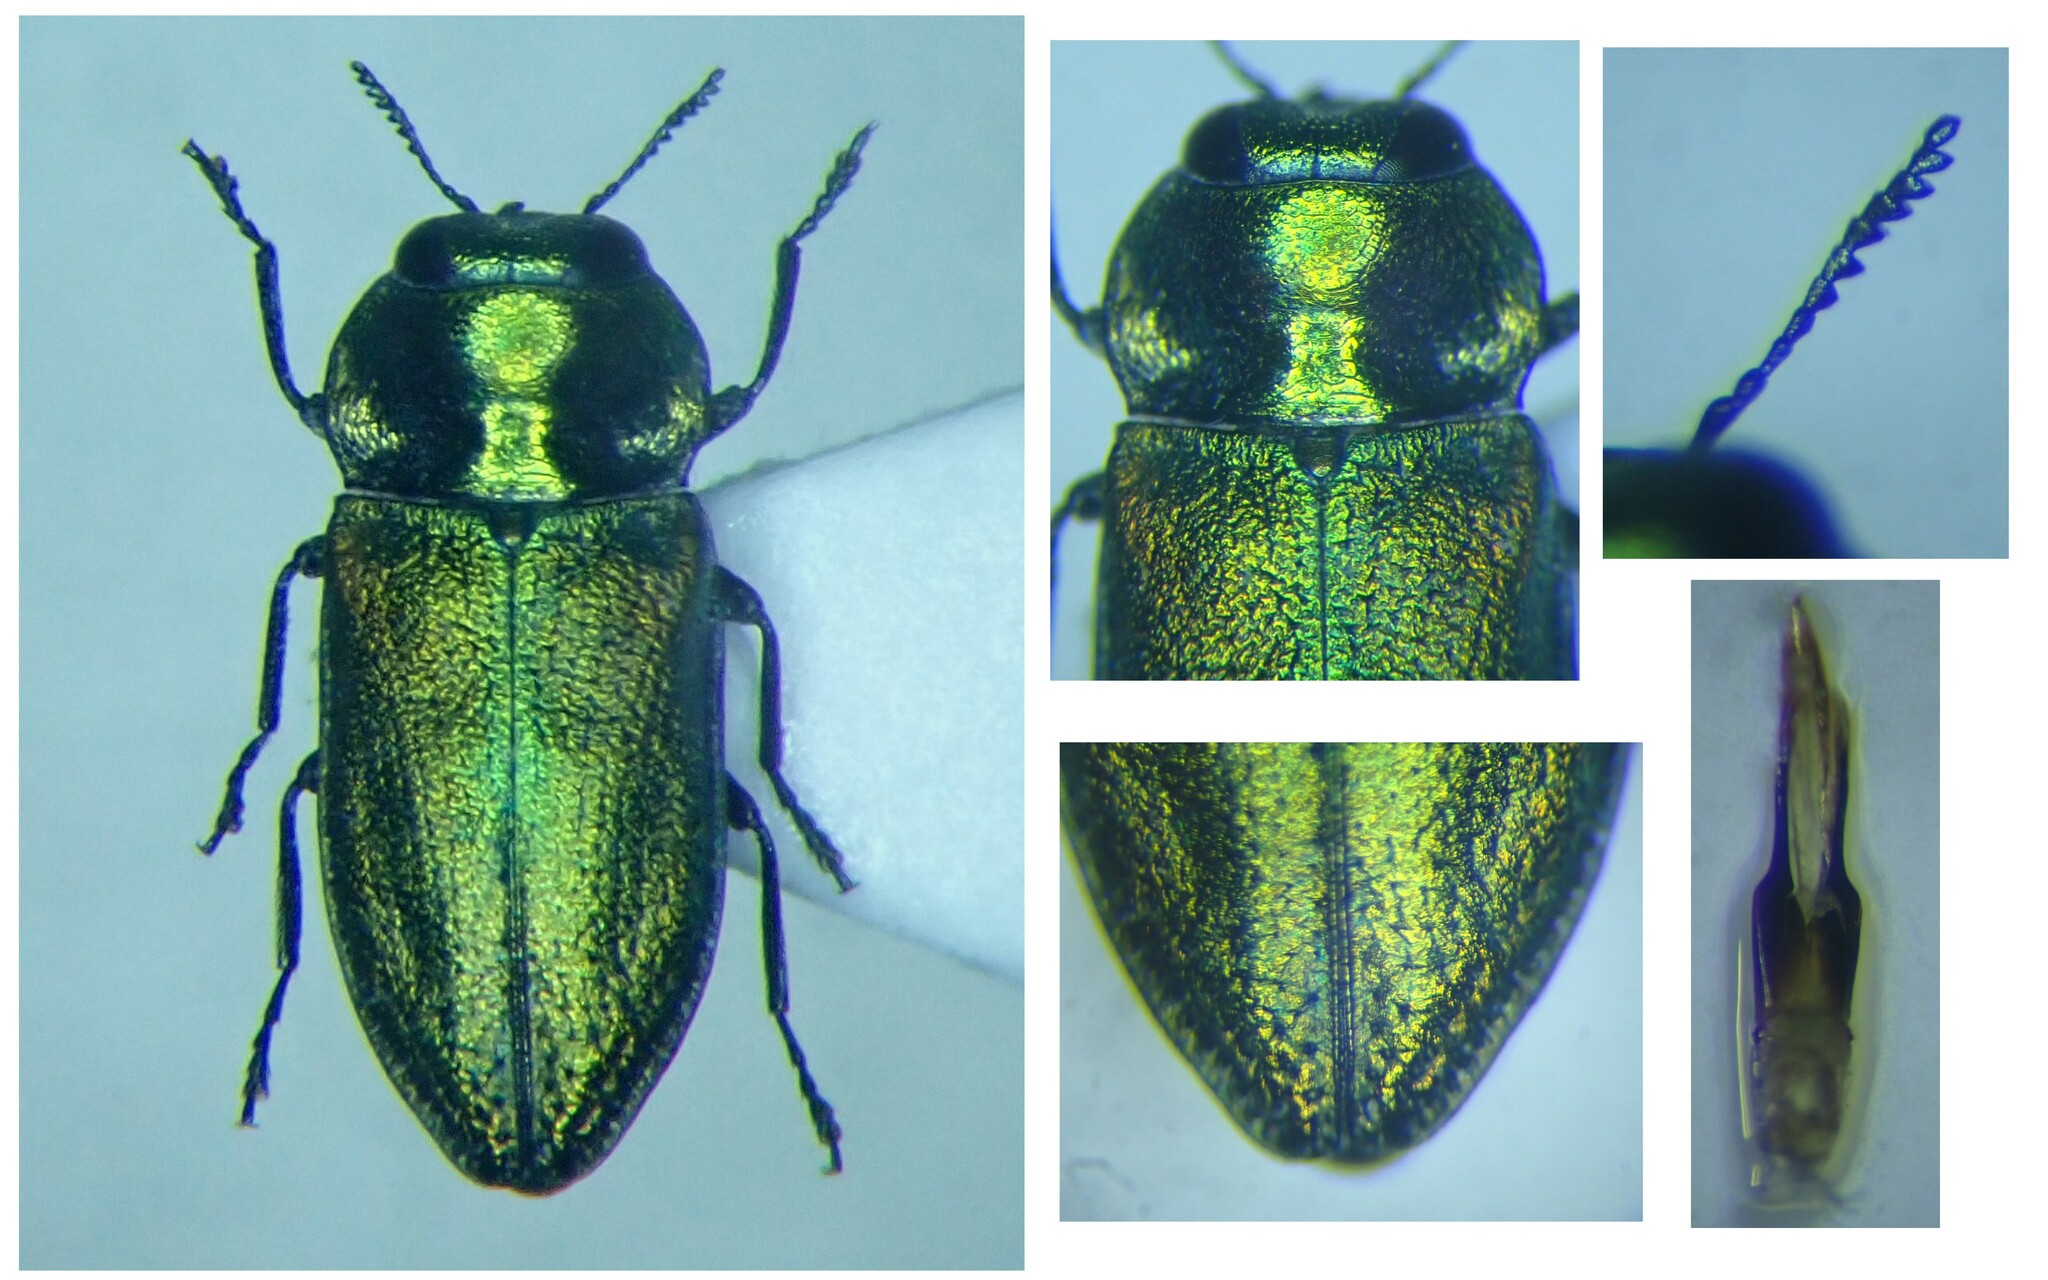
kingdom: Animalia
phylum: Arthropoda
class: Insecta
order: Coleoptera
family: Buprestidae
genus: Anthaxia
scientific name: Anthaxia fulgurans
